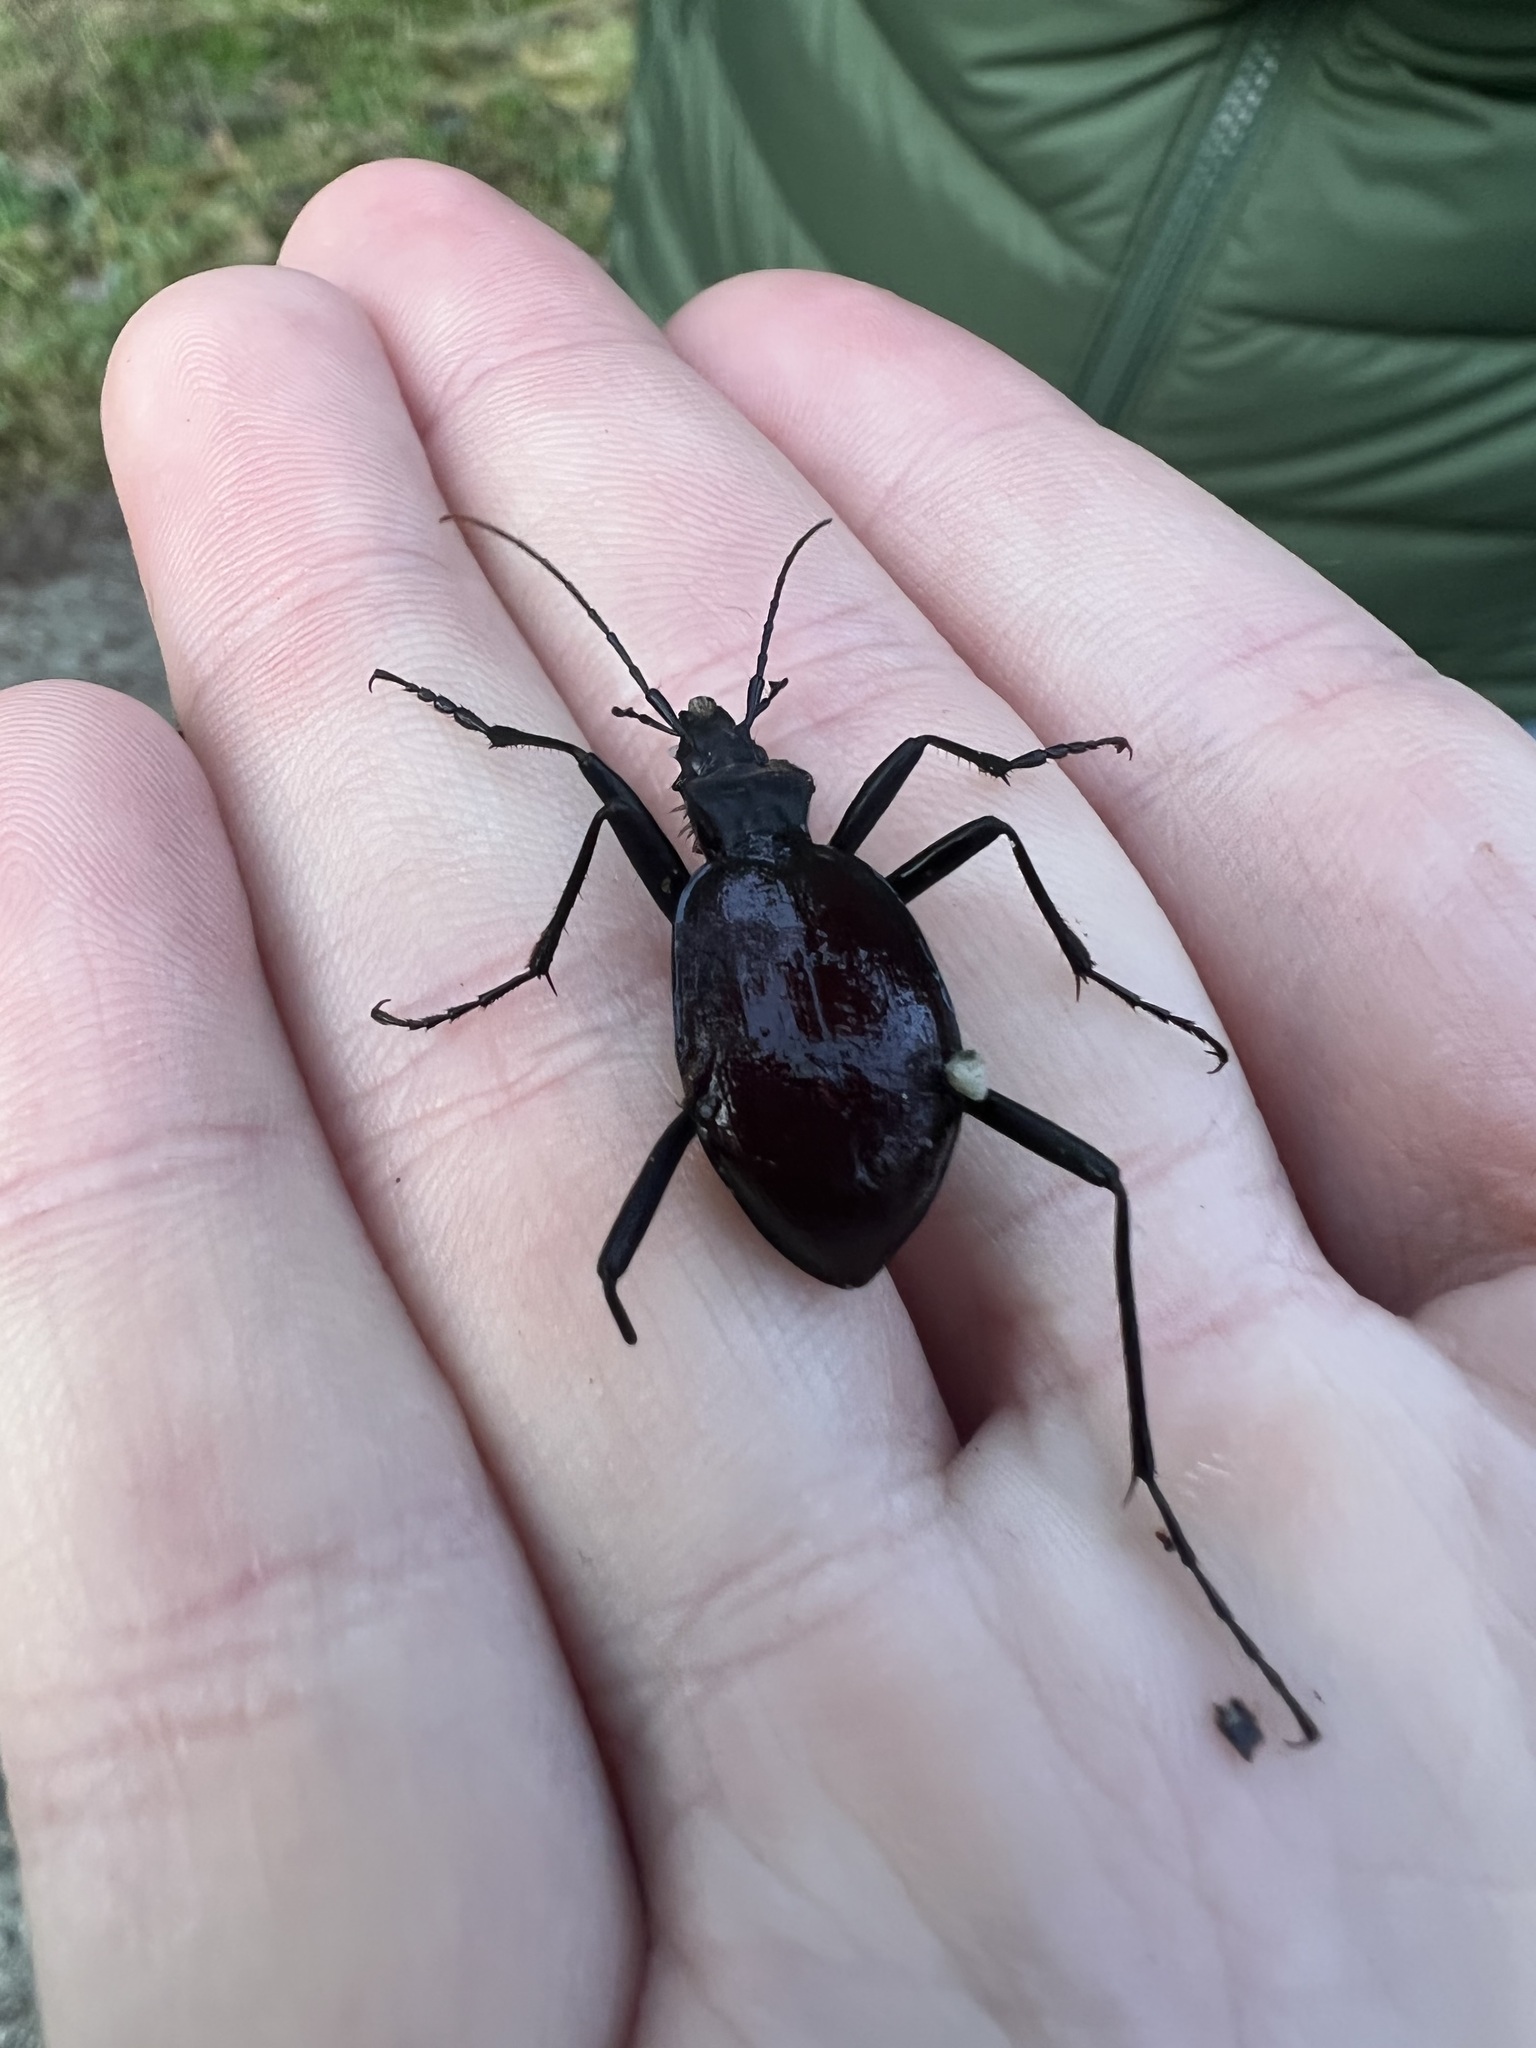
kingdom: Animalia
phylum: Arthropoda
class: Insecta
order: Coleoptera
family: Carabidae
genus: Scaphinotus
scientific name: Scaphinotus angusticollis
